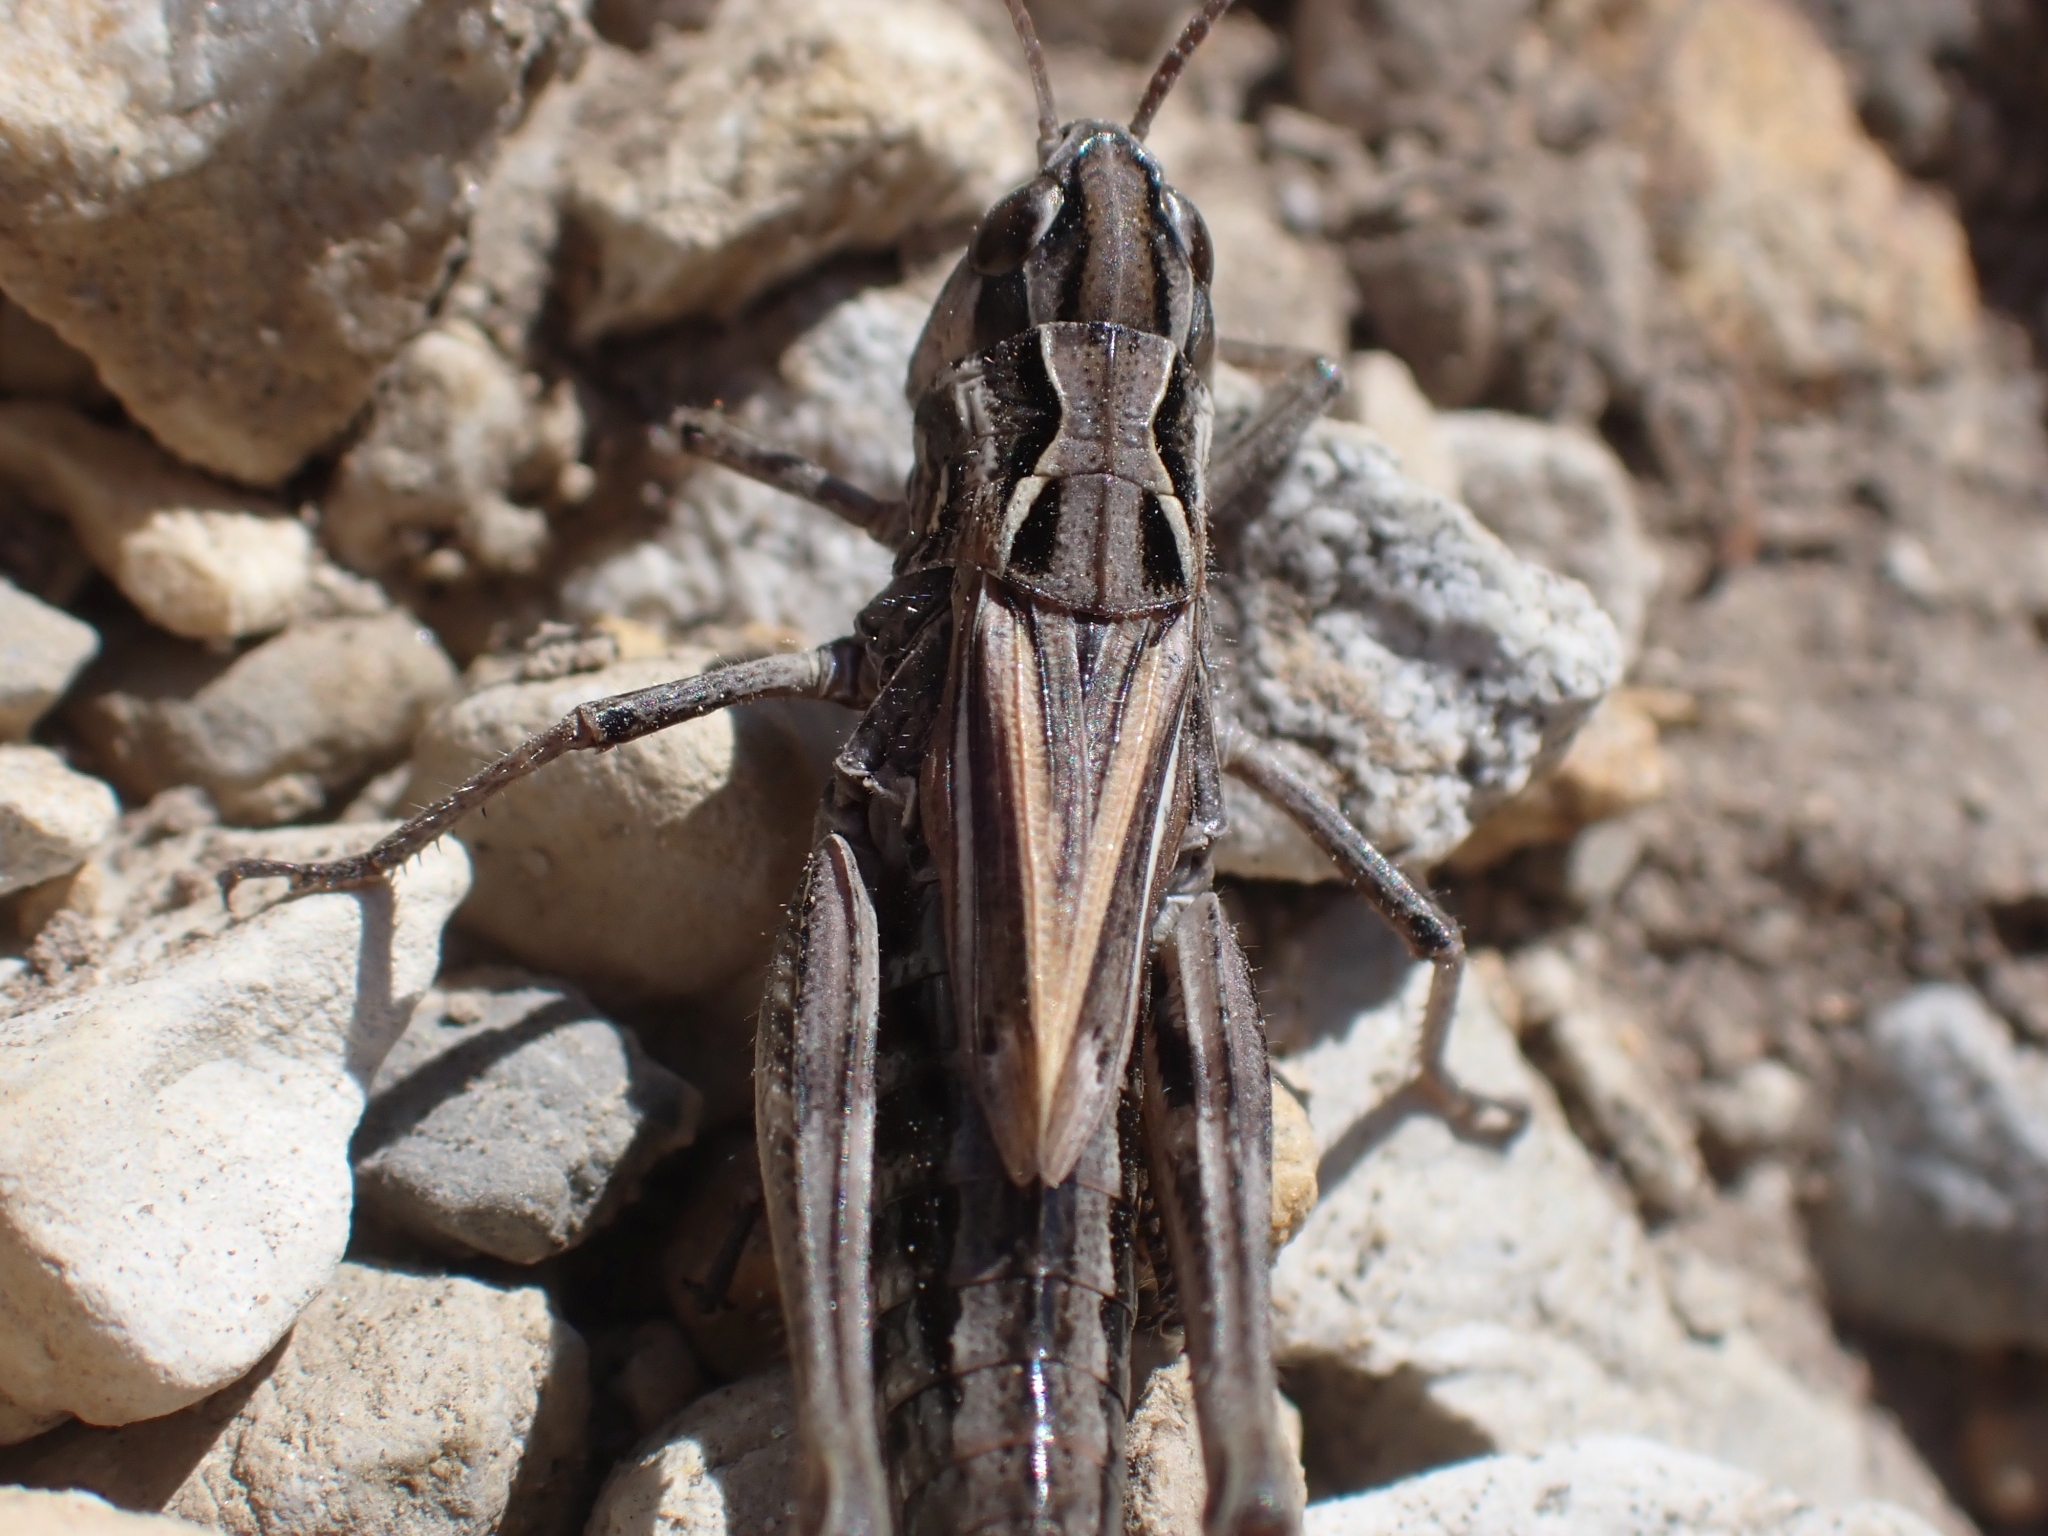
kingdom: Animalia
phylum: Arthropoda
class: Insecta
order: Orthoptera
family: Acrididae
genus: Aeropedellus
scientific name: Aeropedellus clavatus
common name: Clubhorned grasshopper
